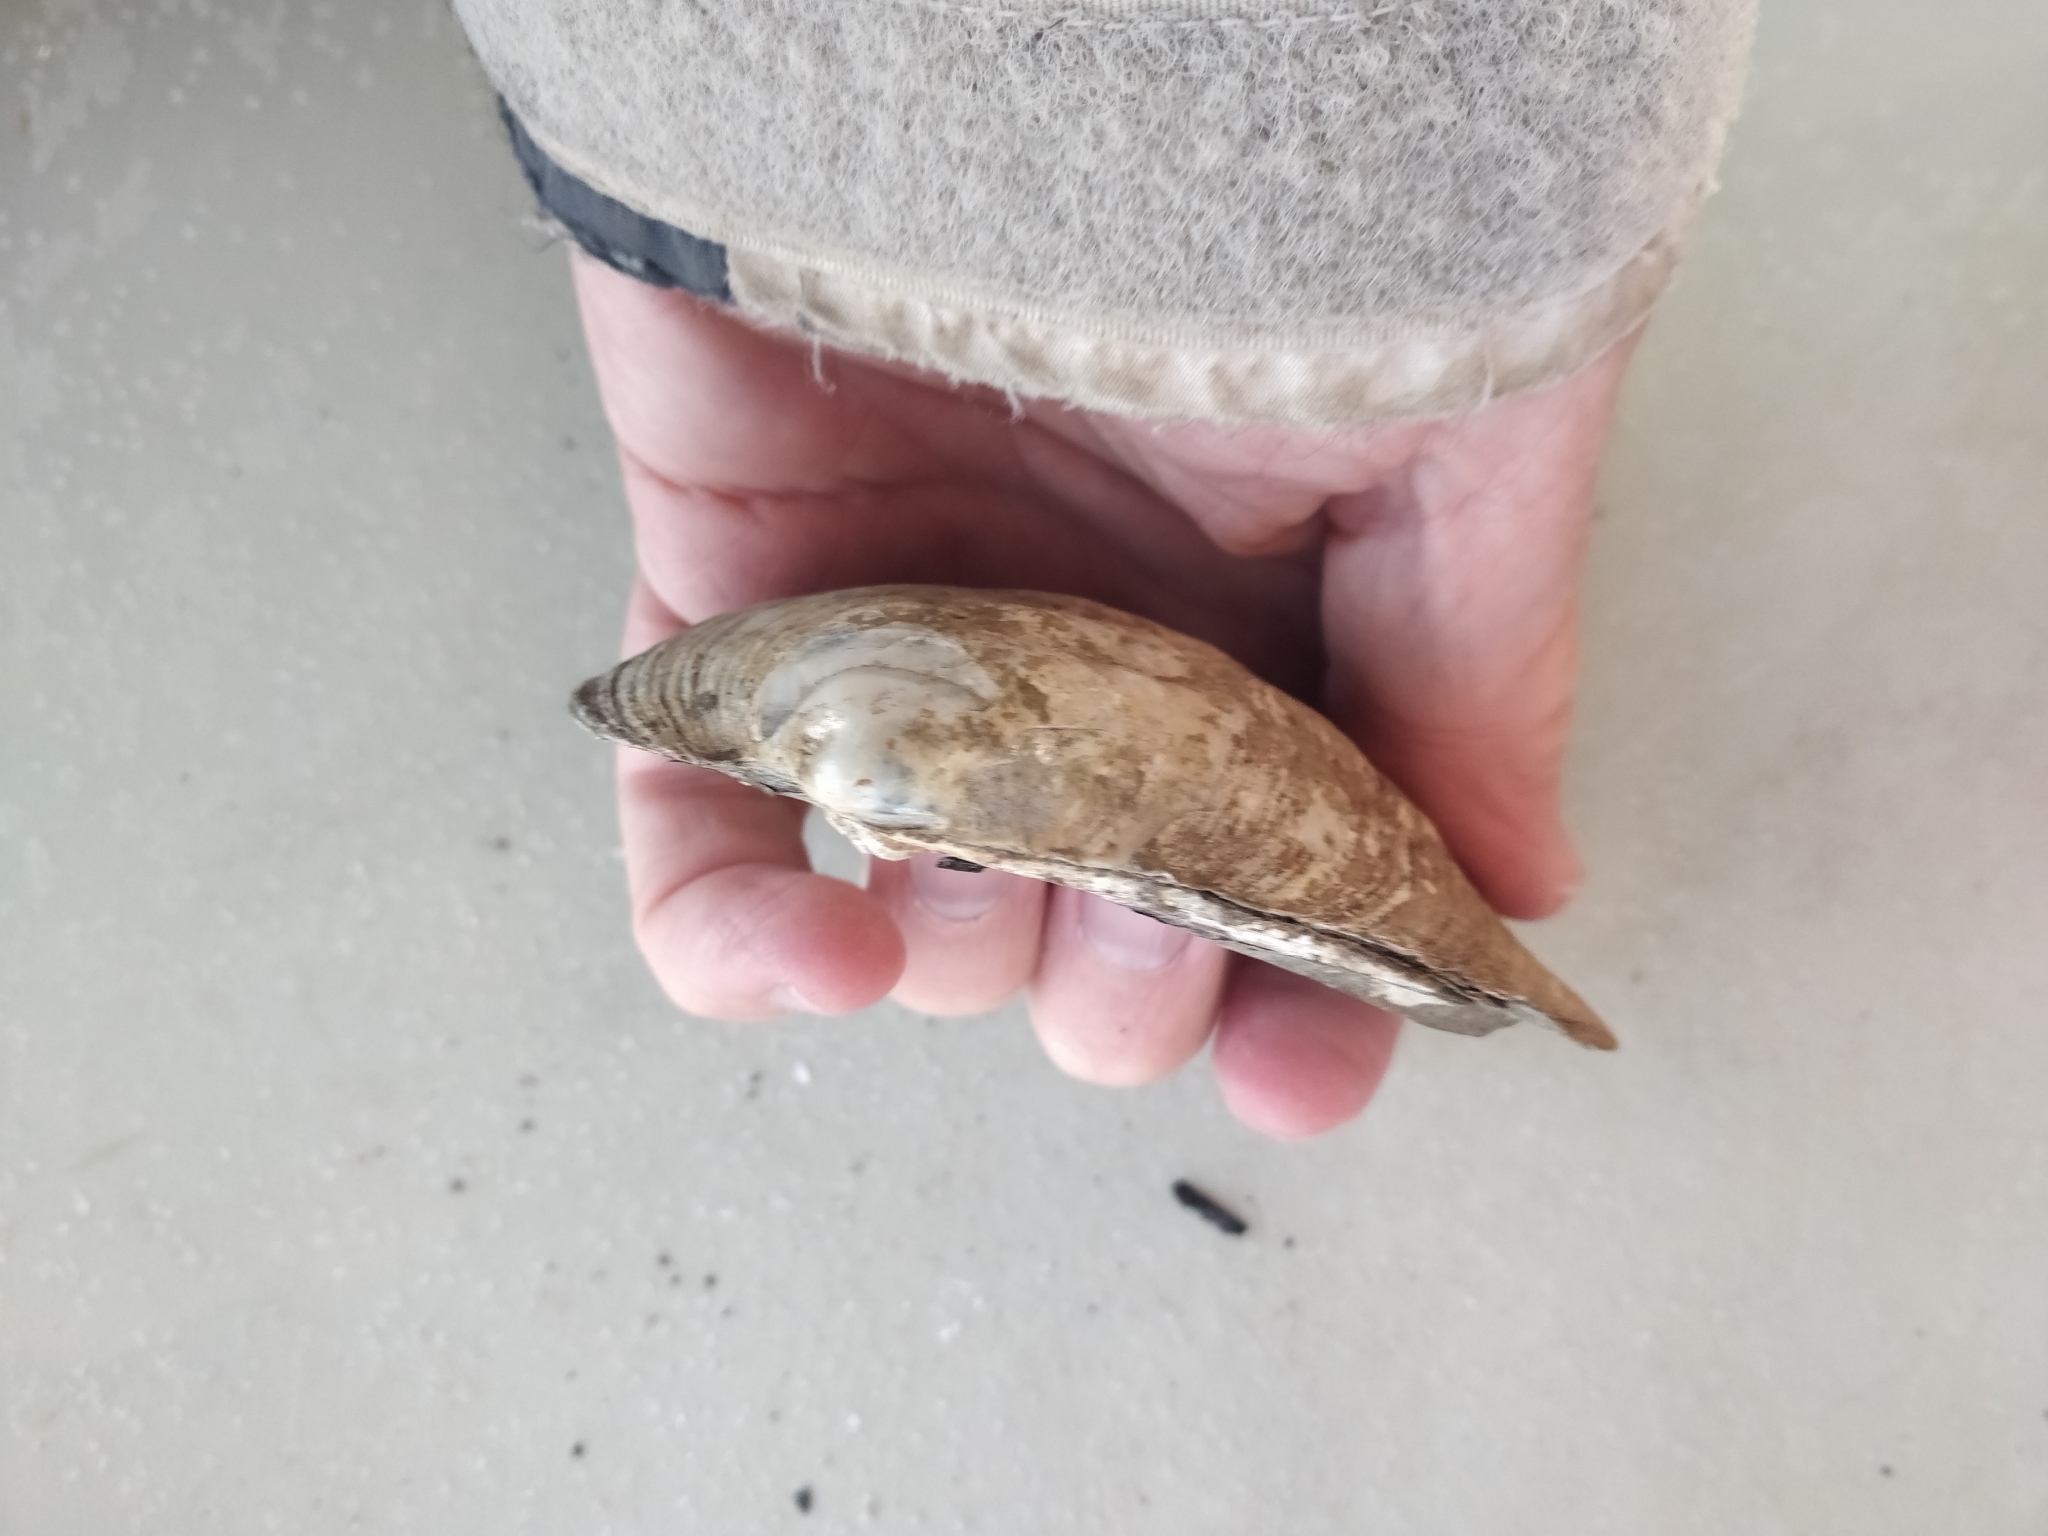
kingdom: Animalia
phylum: Mollusca
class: Bivalvia
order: Unionida
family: Unionidae
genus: Amblema
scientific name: Amblema plicata
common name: Threeridge
